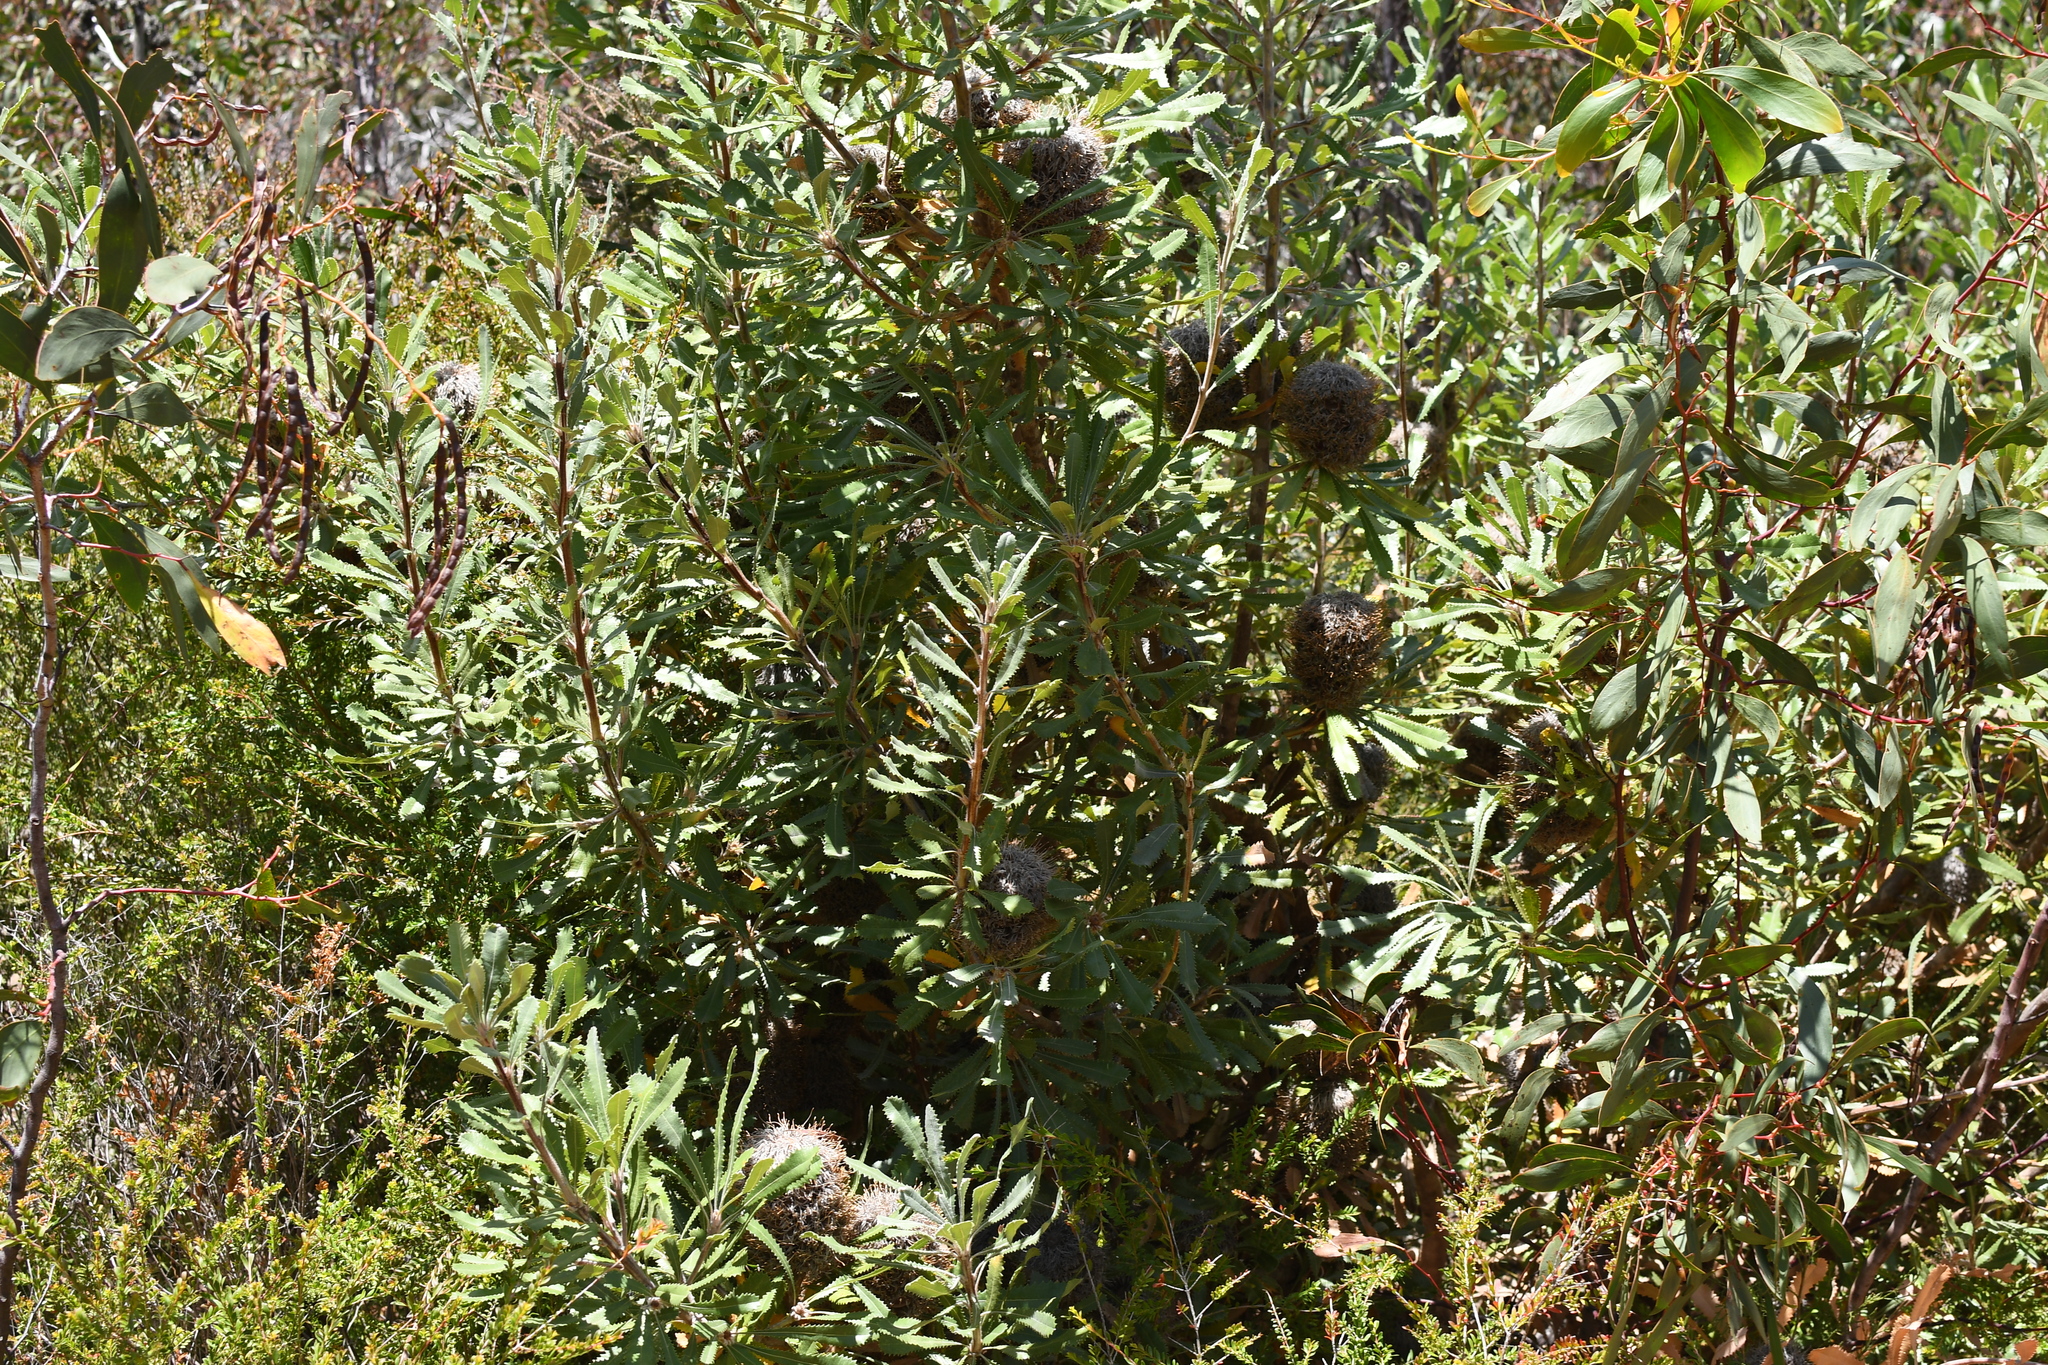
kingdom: Plantae
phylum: Tracheophyta
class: Magnoliopsida
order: Proteales
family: Proteaceae
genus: Banksia
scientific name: Banksia ornata
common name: Desert banksia
